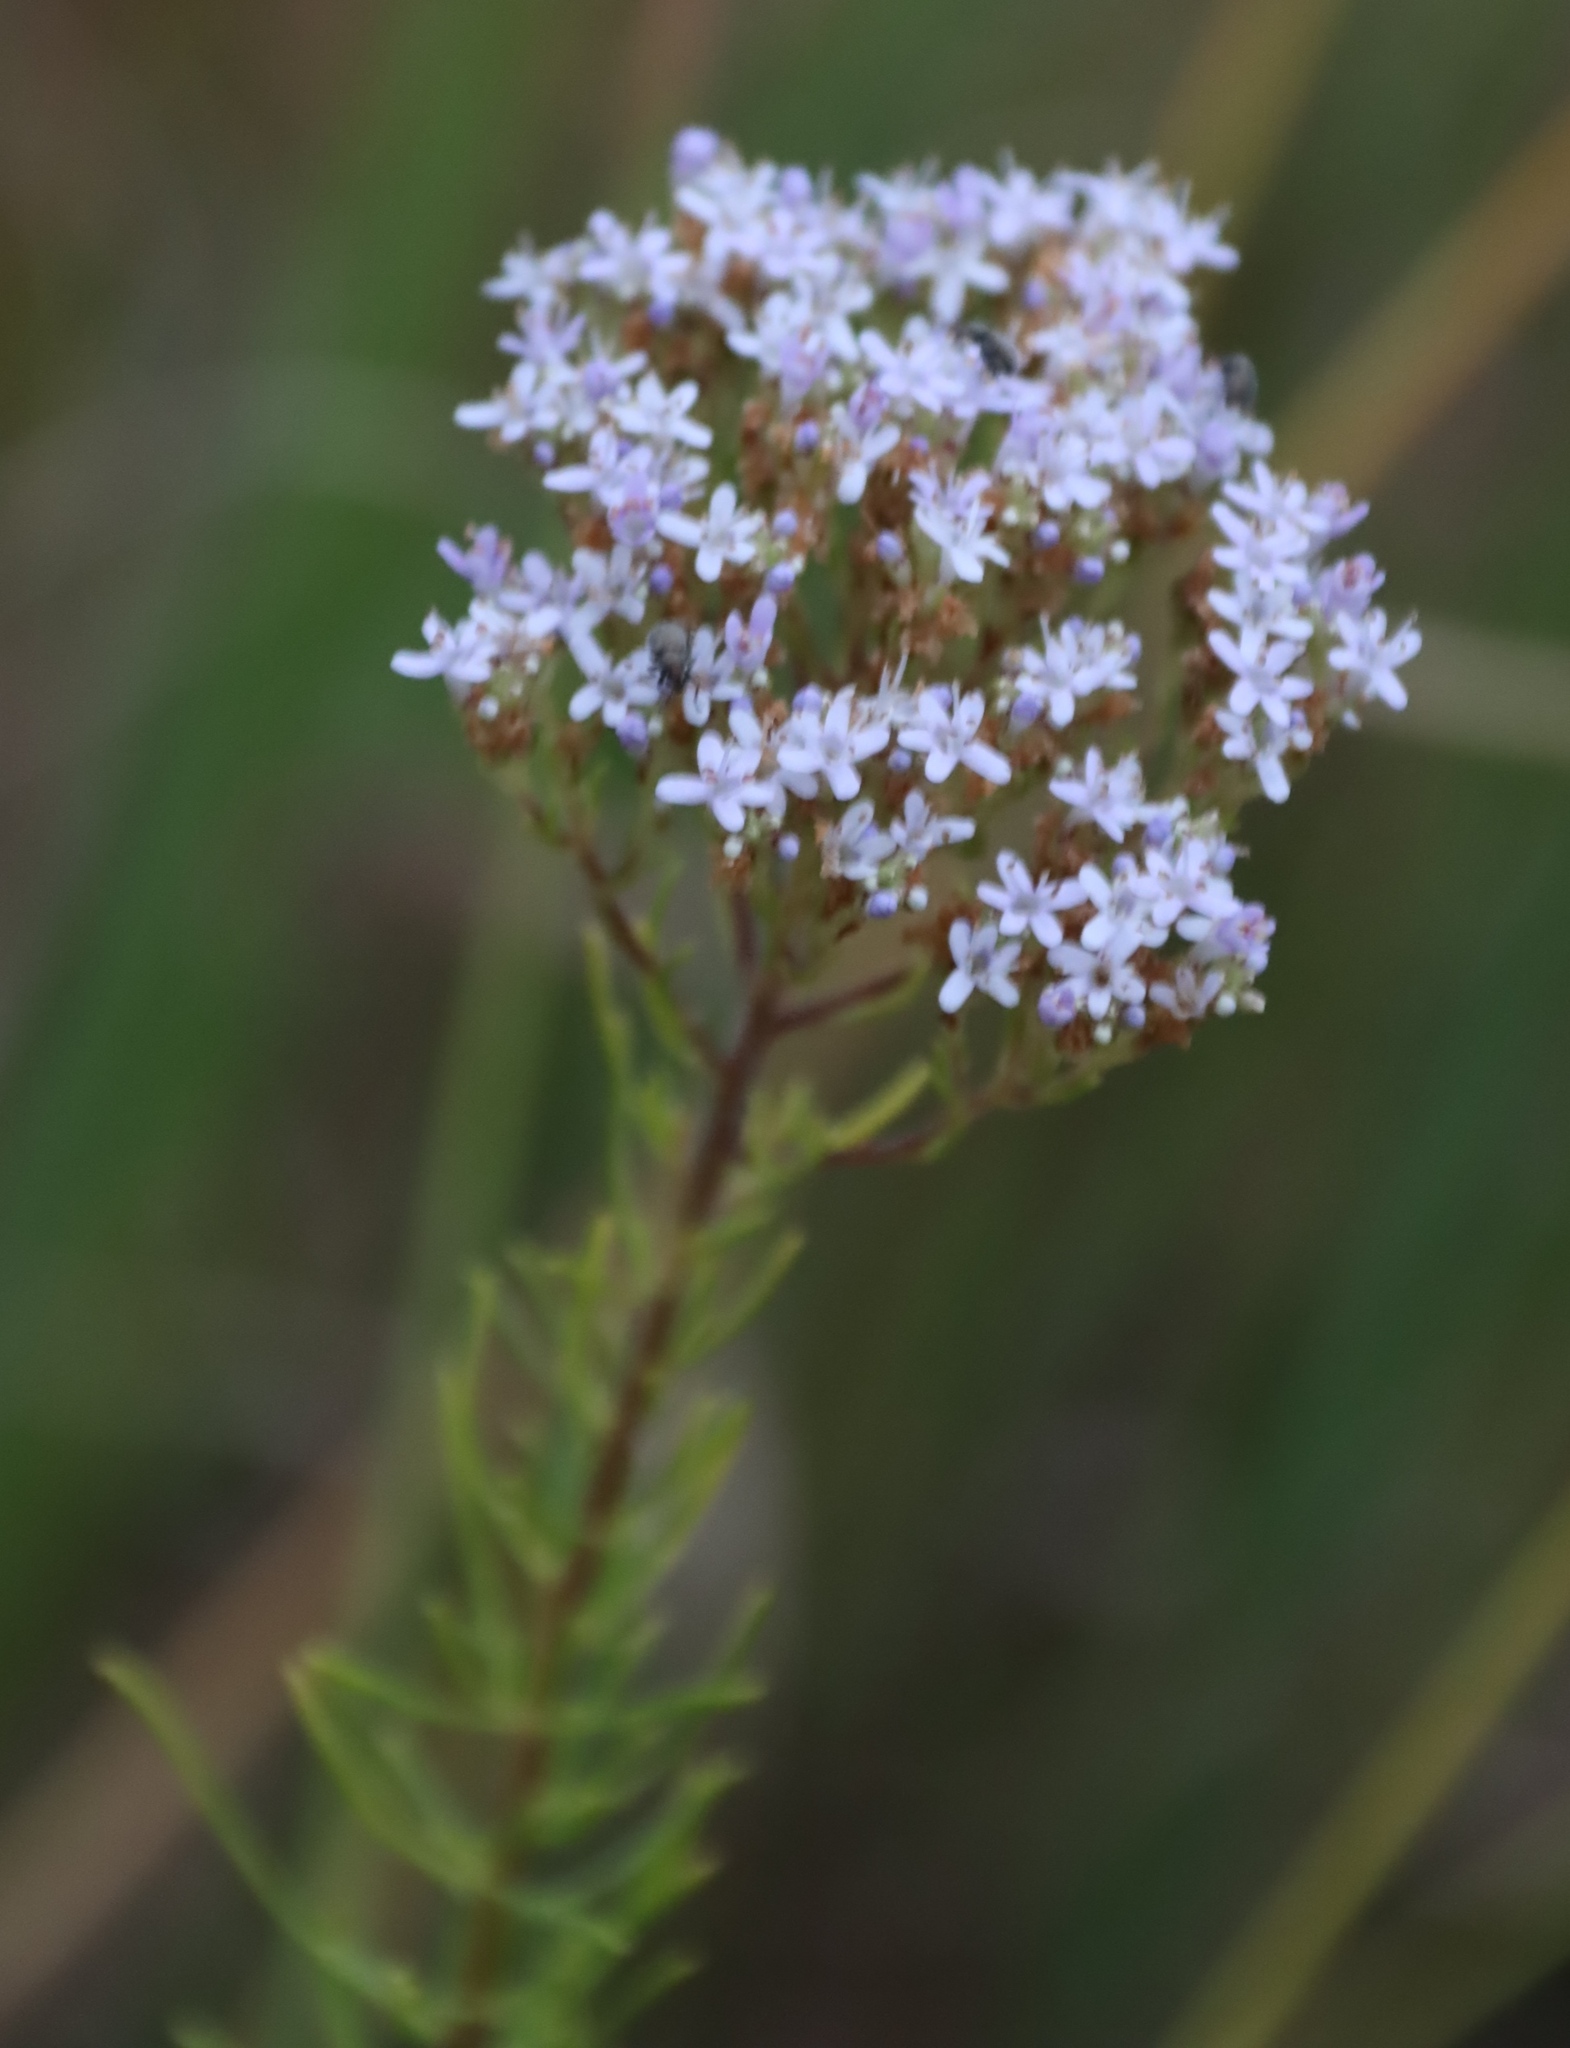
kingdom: Plantae
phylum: Tracheophyta
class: Magnoliopsida
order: Lamiales
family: Scrophulariaceae
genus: Tetraselago
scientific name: Tetraselago natalensis
